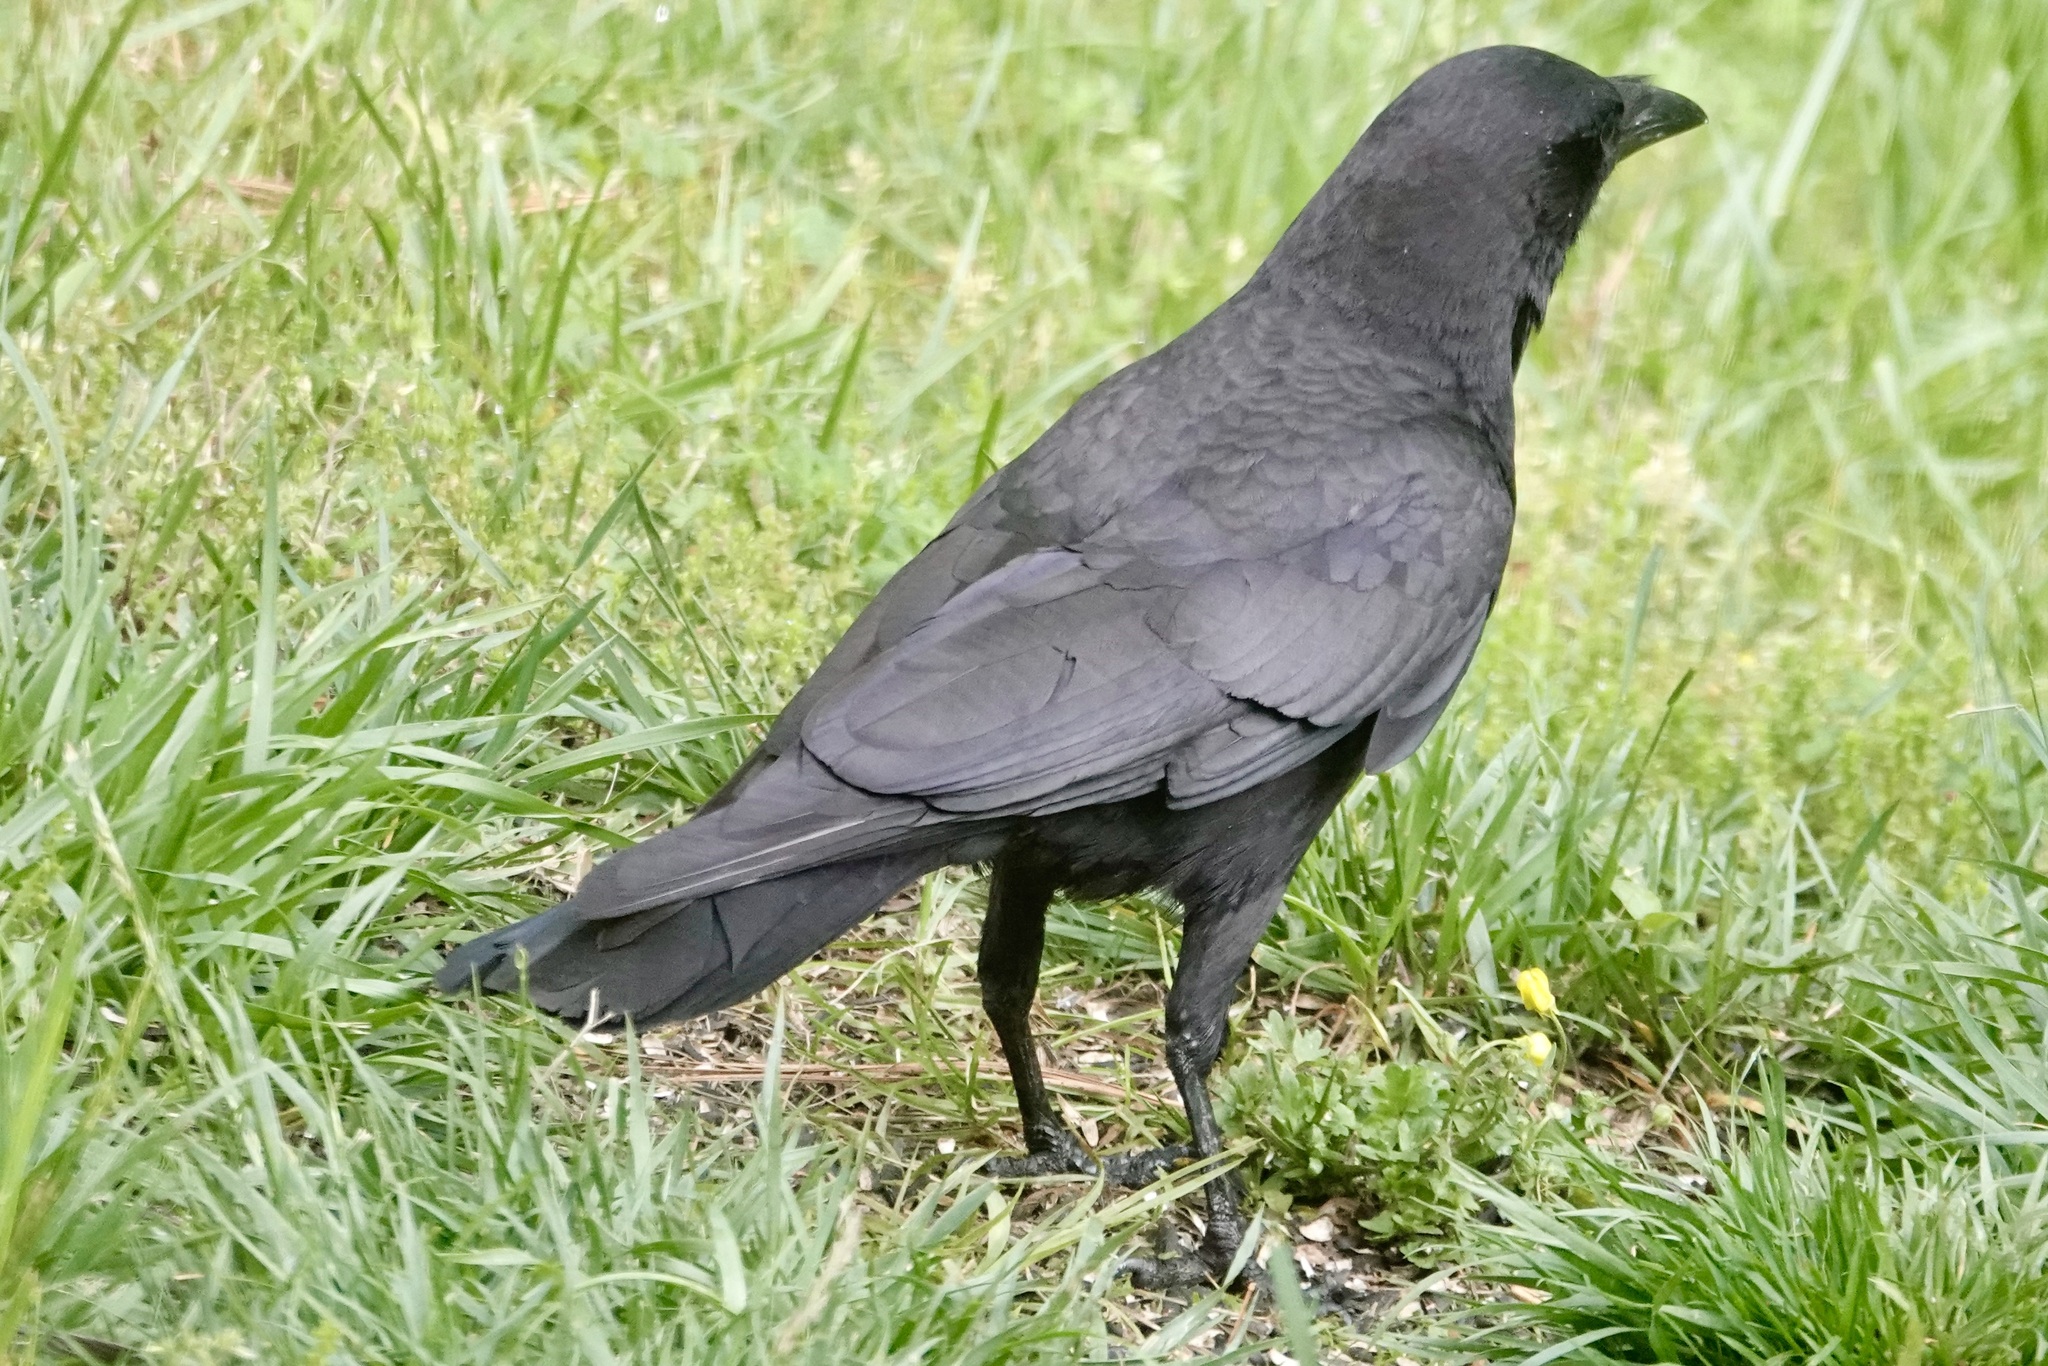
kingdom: Animalia
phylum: Chordata
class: Aves
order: Passeriformes
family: Corvidae
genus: Corvus
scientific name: Corvus brachyrhynchos
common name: American crow
